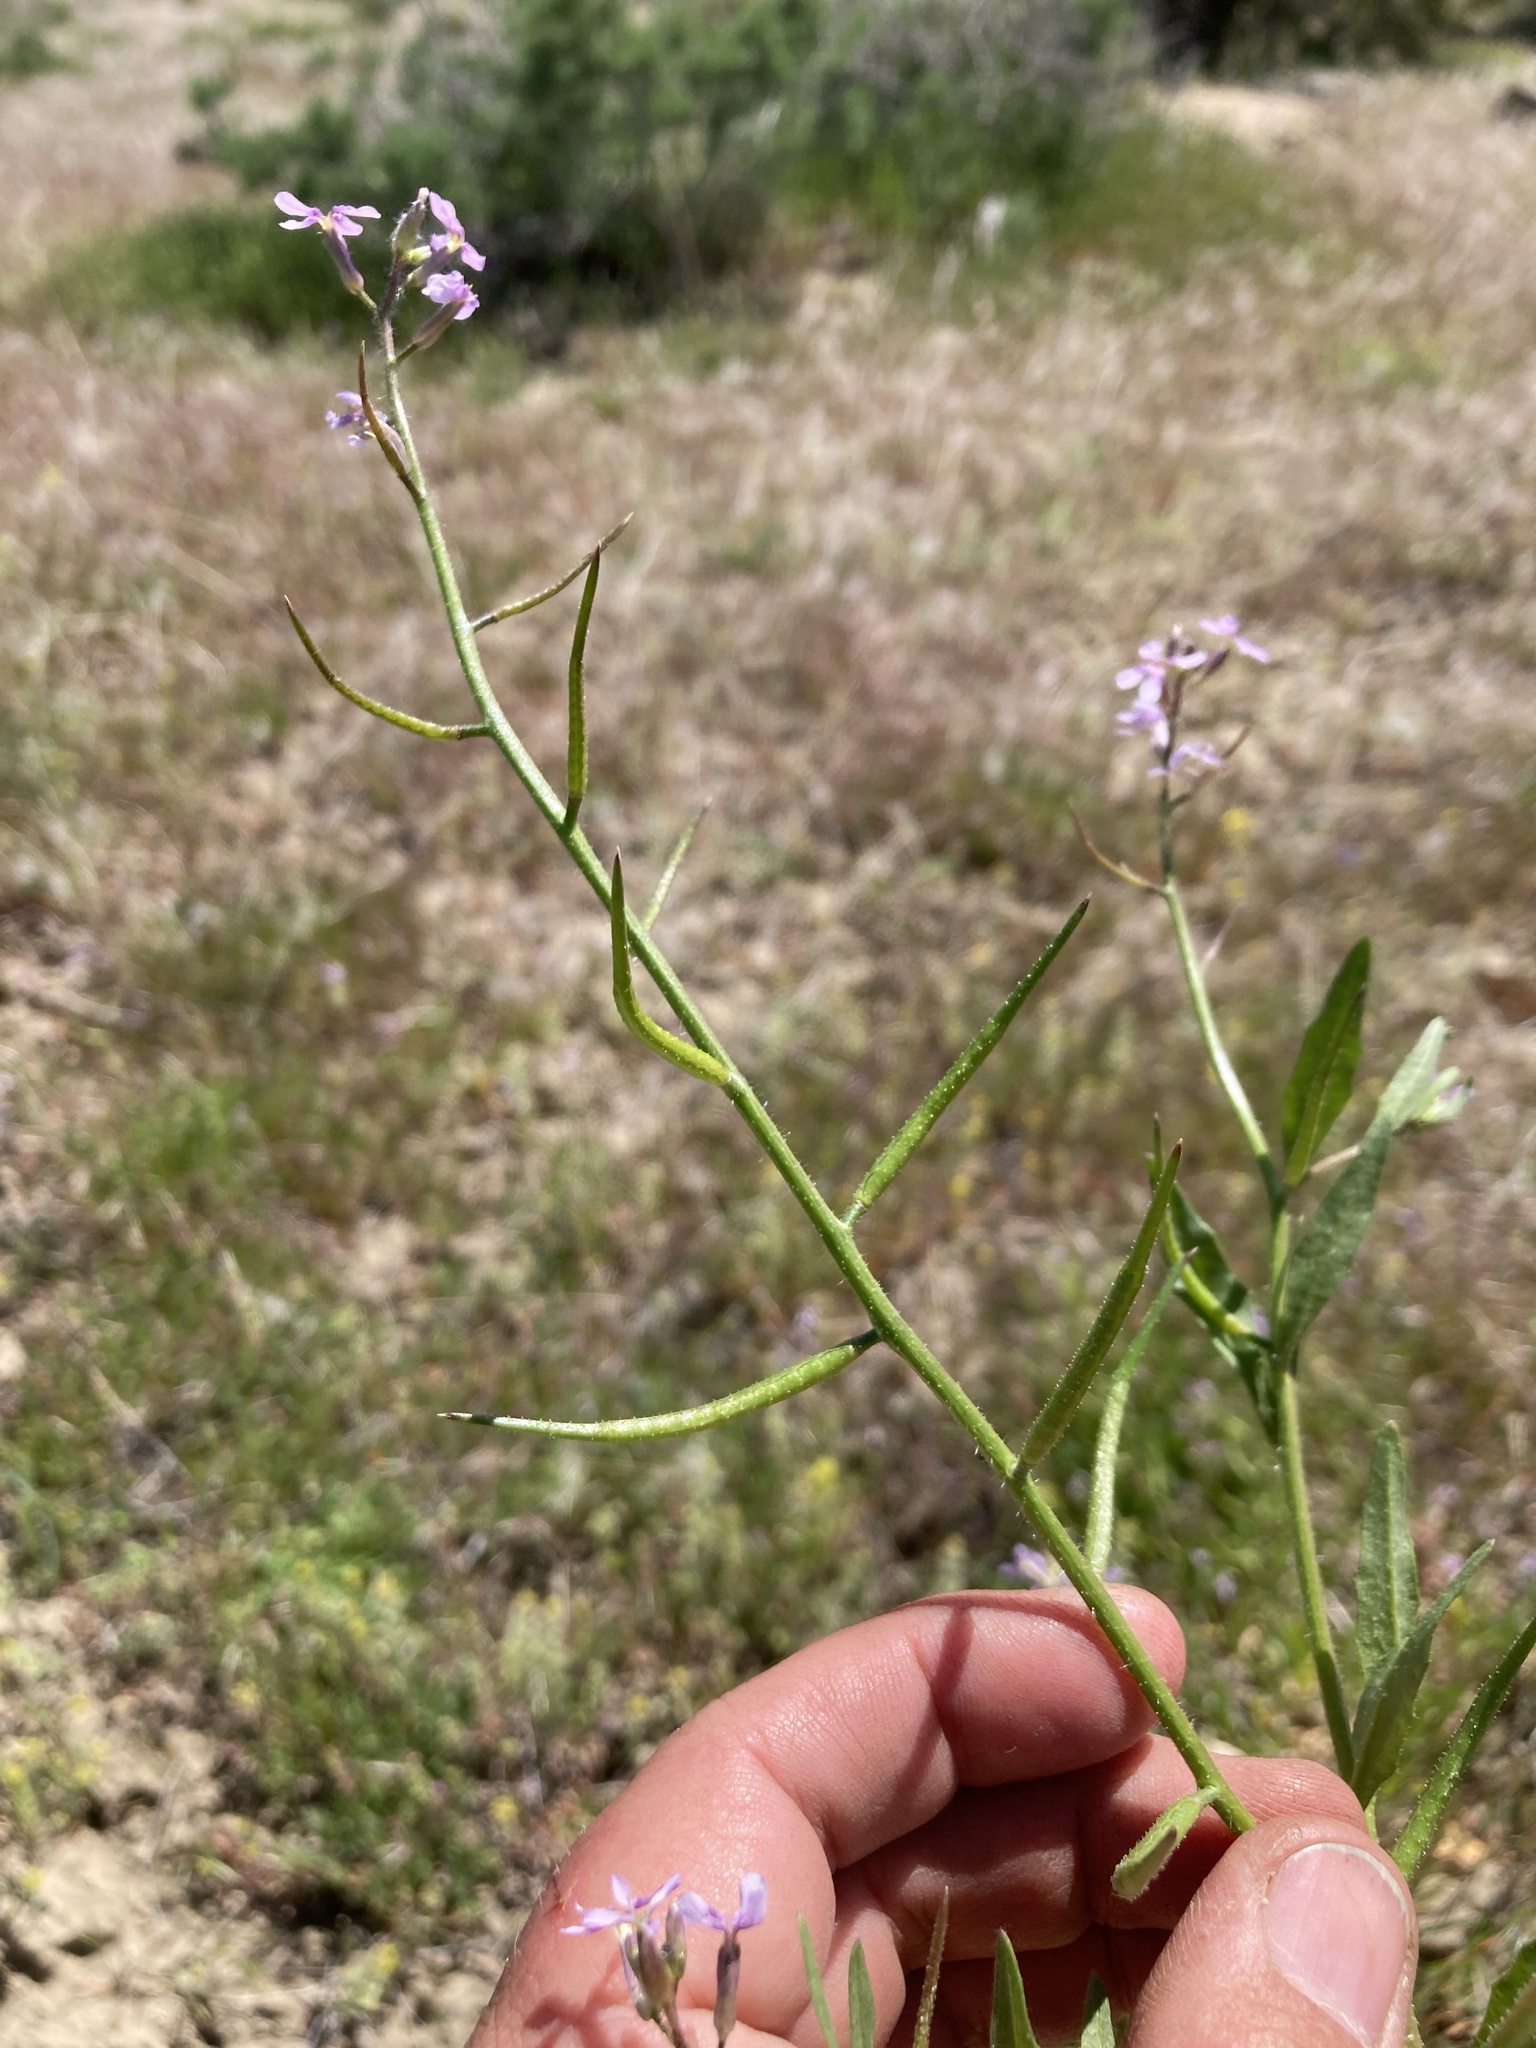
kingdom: Plantae
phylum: Tracheophyta
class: Magnoliopsida
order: Brassicales
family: Brassicaceae
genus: Chorispora
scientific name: Chorispora tenella
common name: Crossflower
